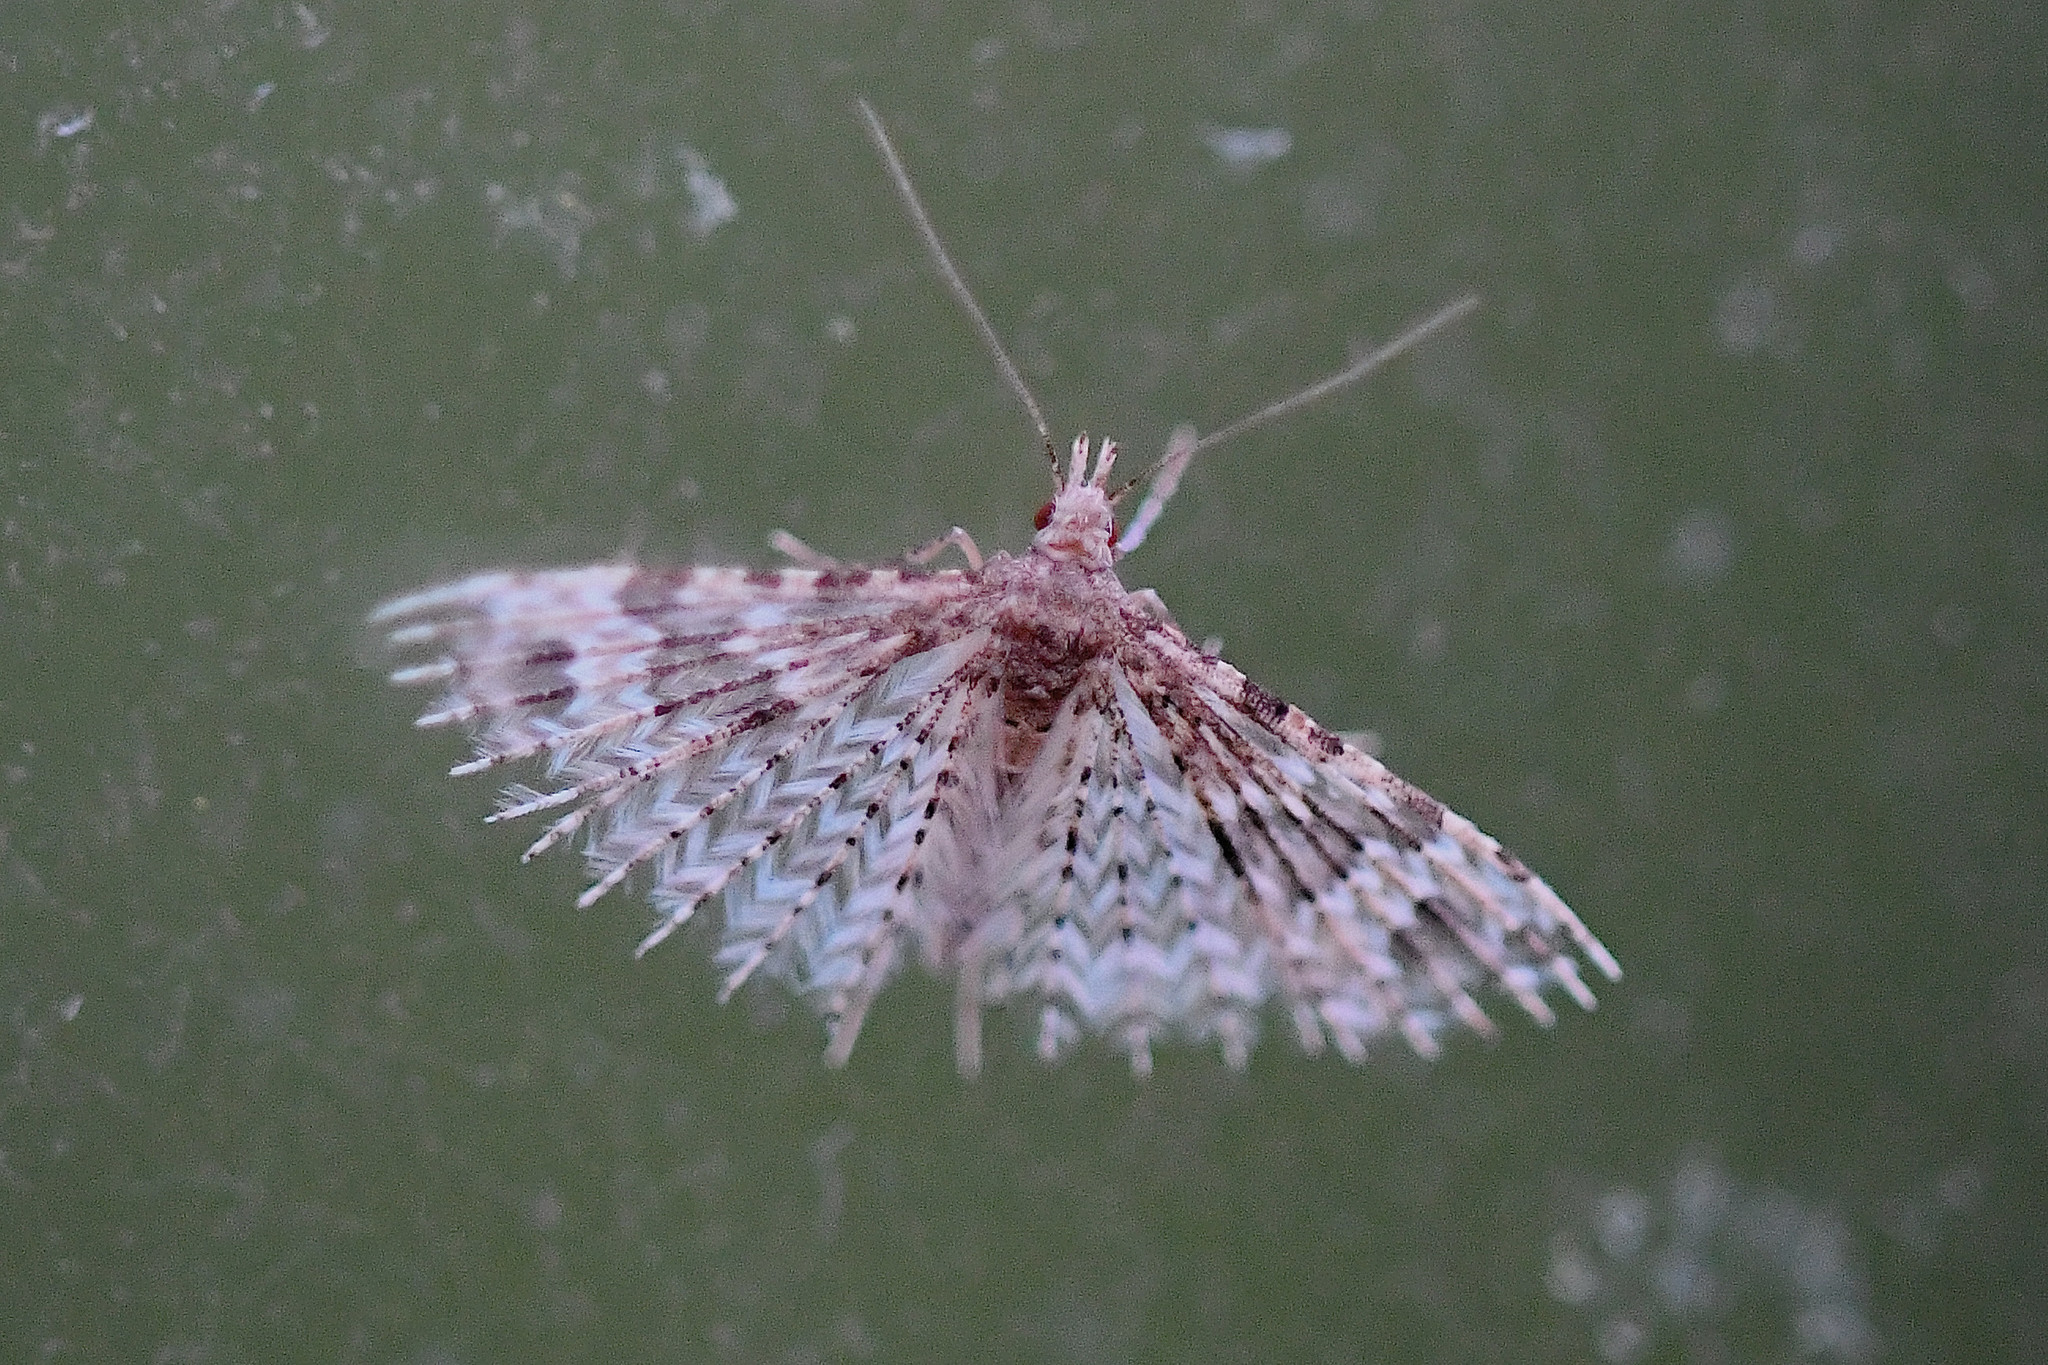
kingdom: Animalia
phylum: Arthropoda
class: Insecta
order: Lepidoptera
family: Alucitidae
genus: Alucita
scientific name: Alucita hexadactyla
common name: Twenty-plume moth
